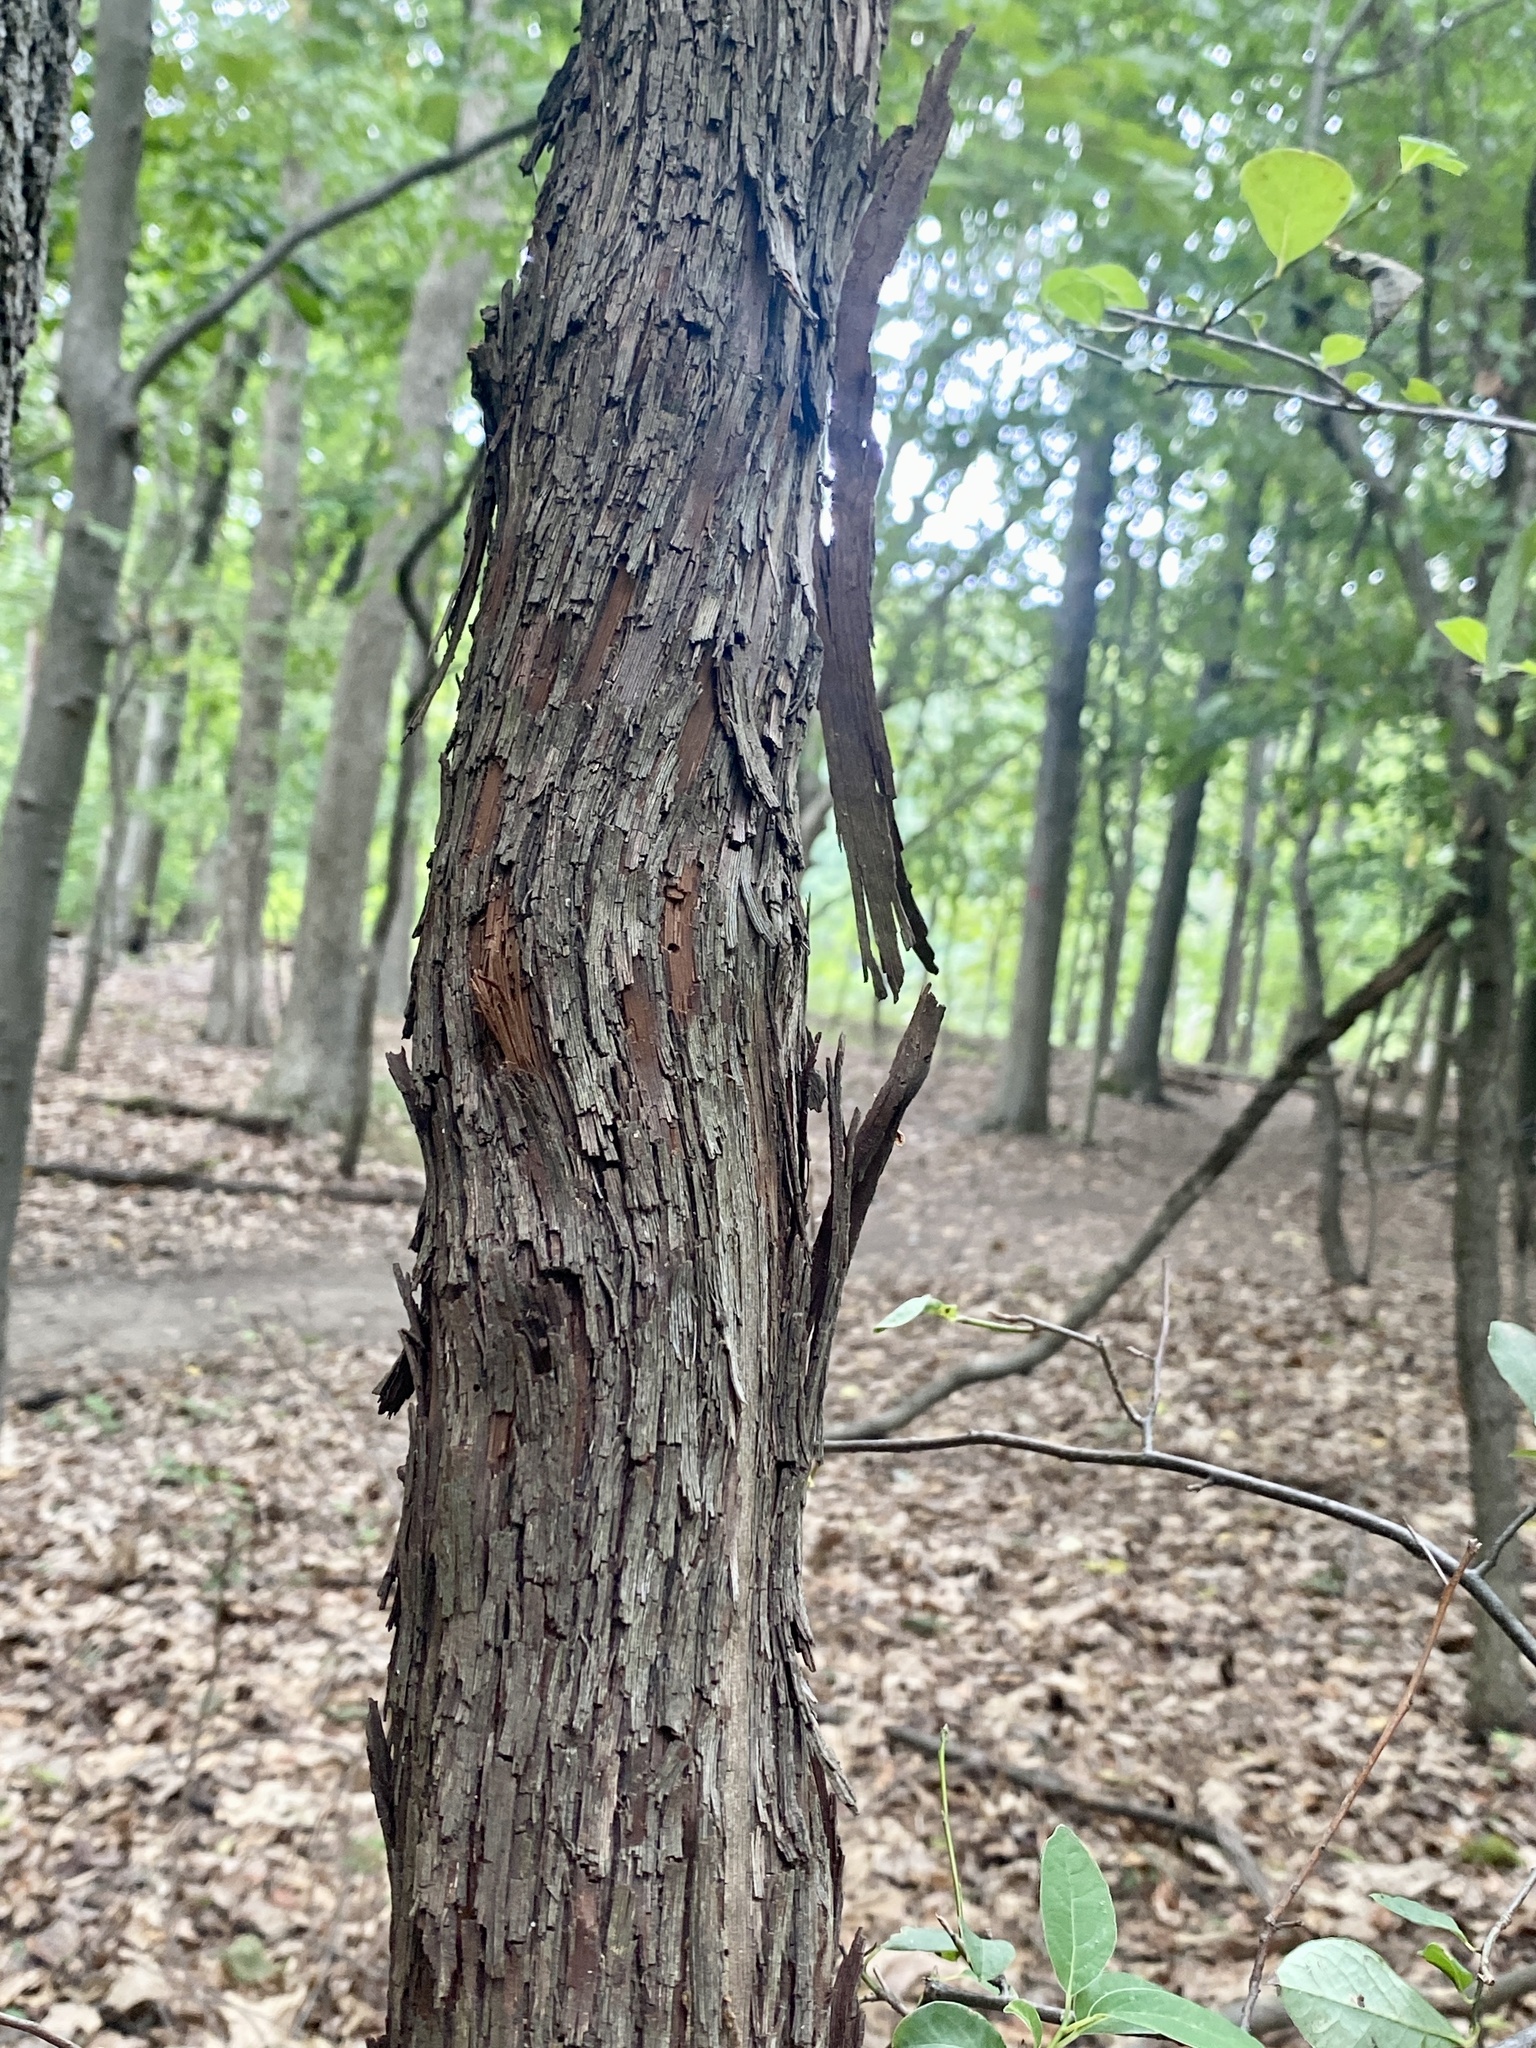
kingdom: Plantae
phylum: Tracheophyta
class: Magnoliopsida
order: Vitales
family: Vitaceae
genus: Vitis
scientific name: Vitis
